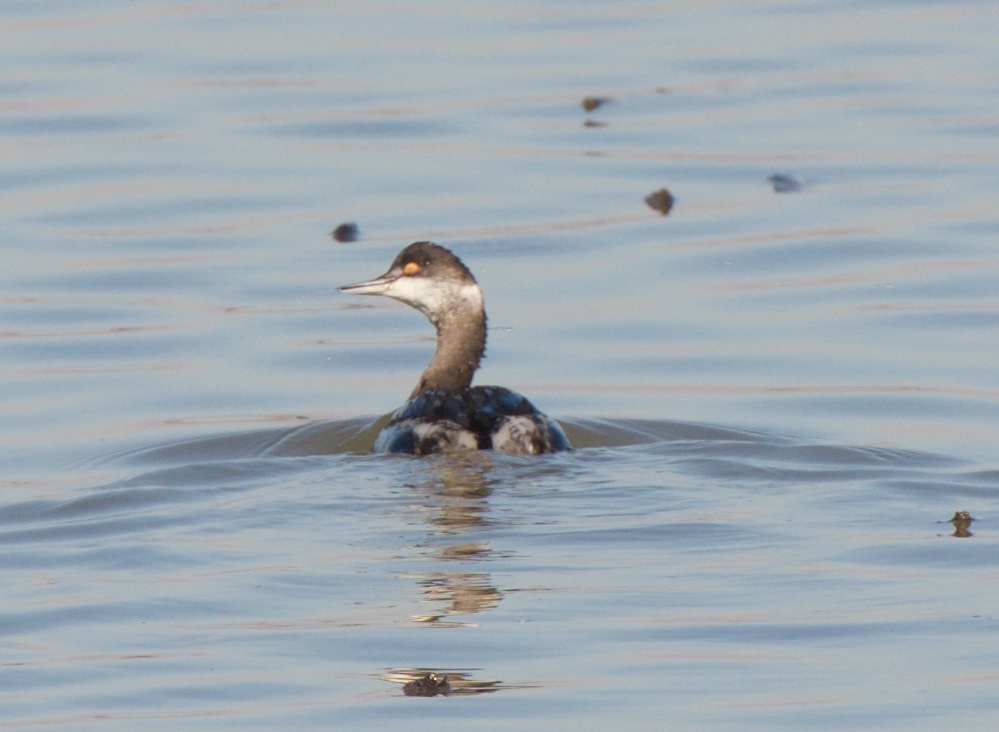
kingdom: Animalia
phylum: Chordata
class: Aves
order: Podicipediformes
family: Podicipedidae
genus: Podiceps
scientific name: Podiceps nigricollis
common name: Black-necked grebe
